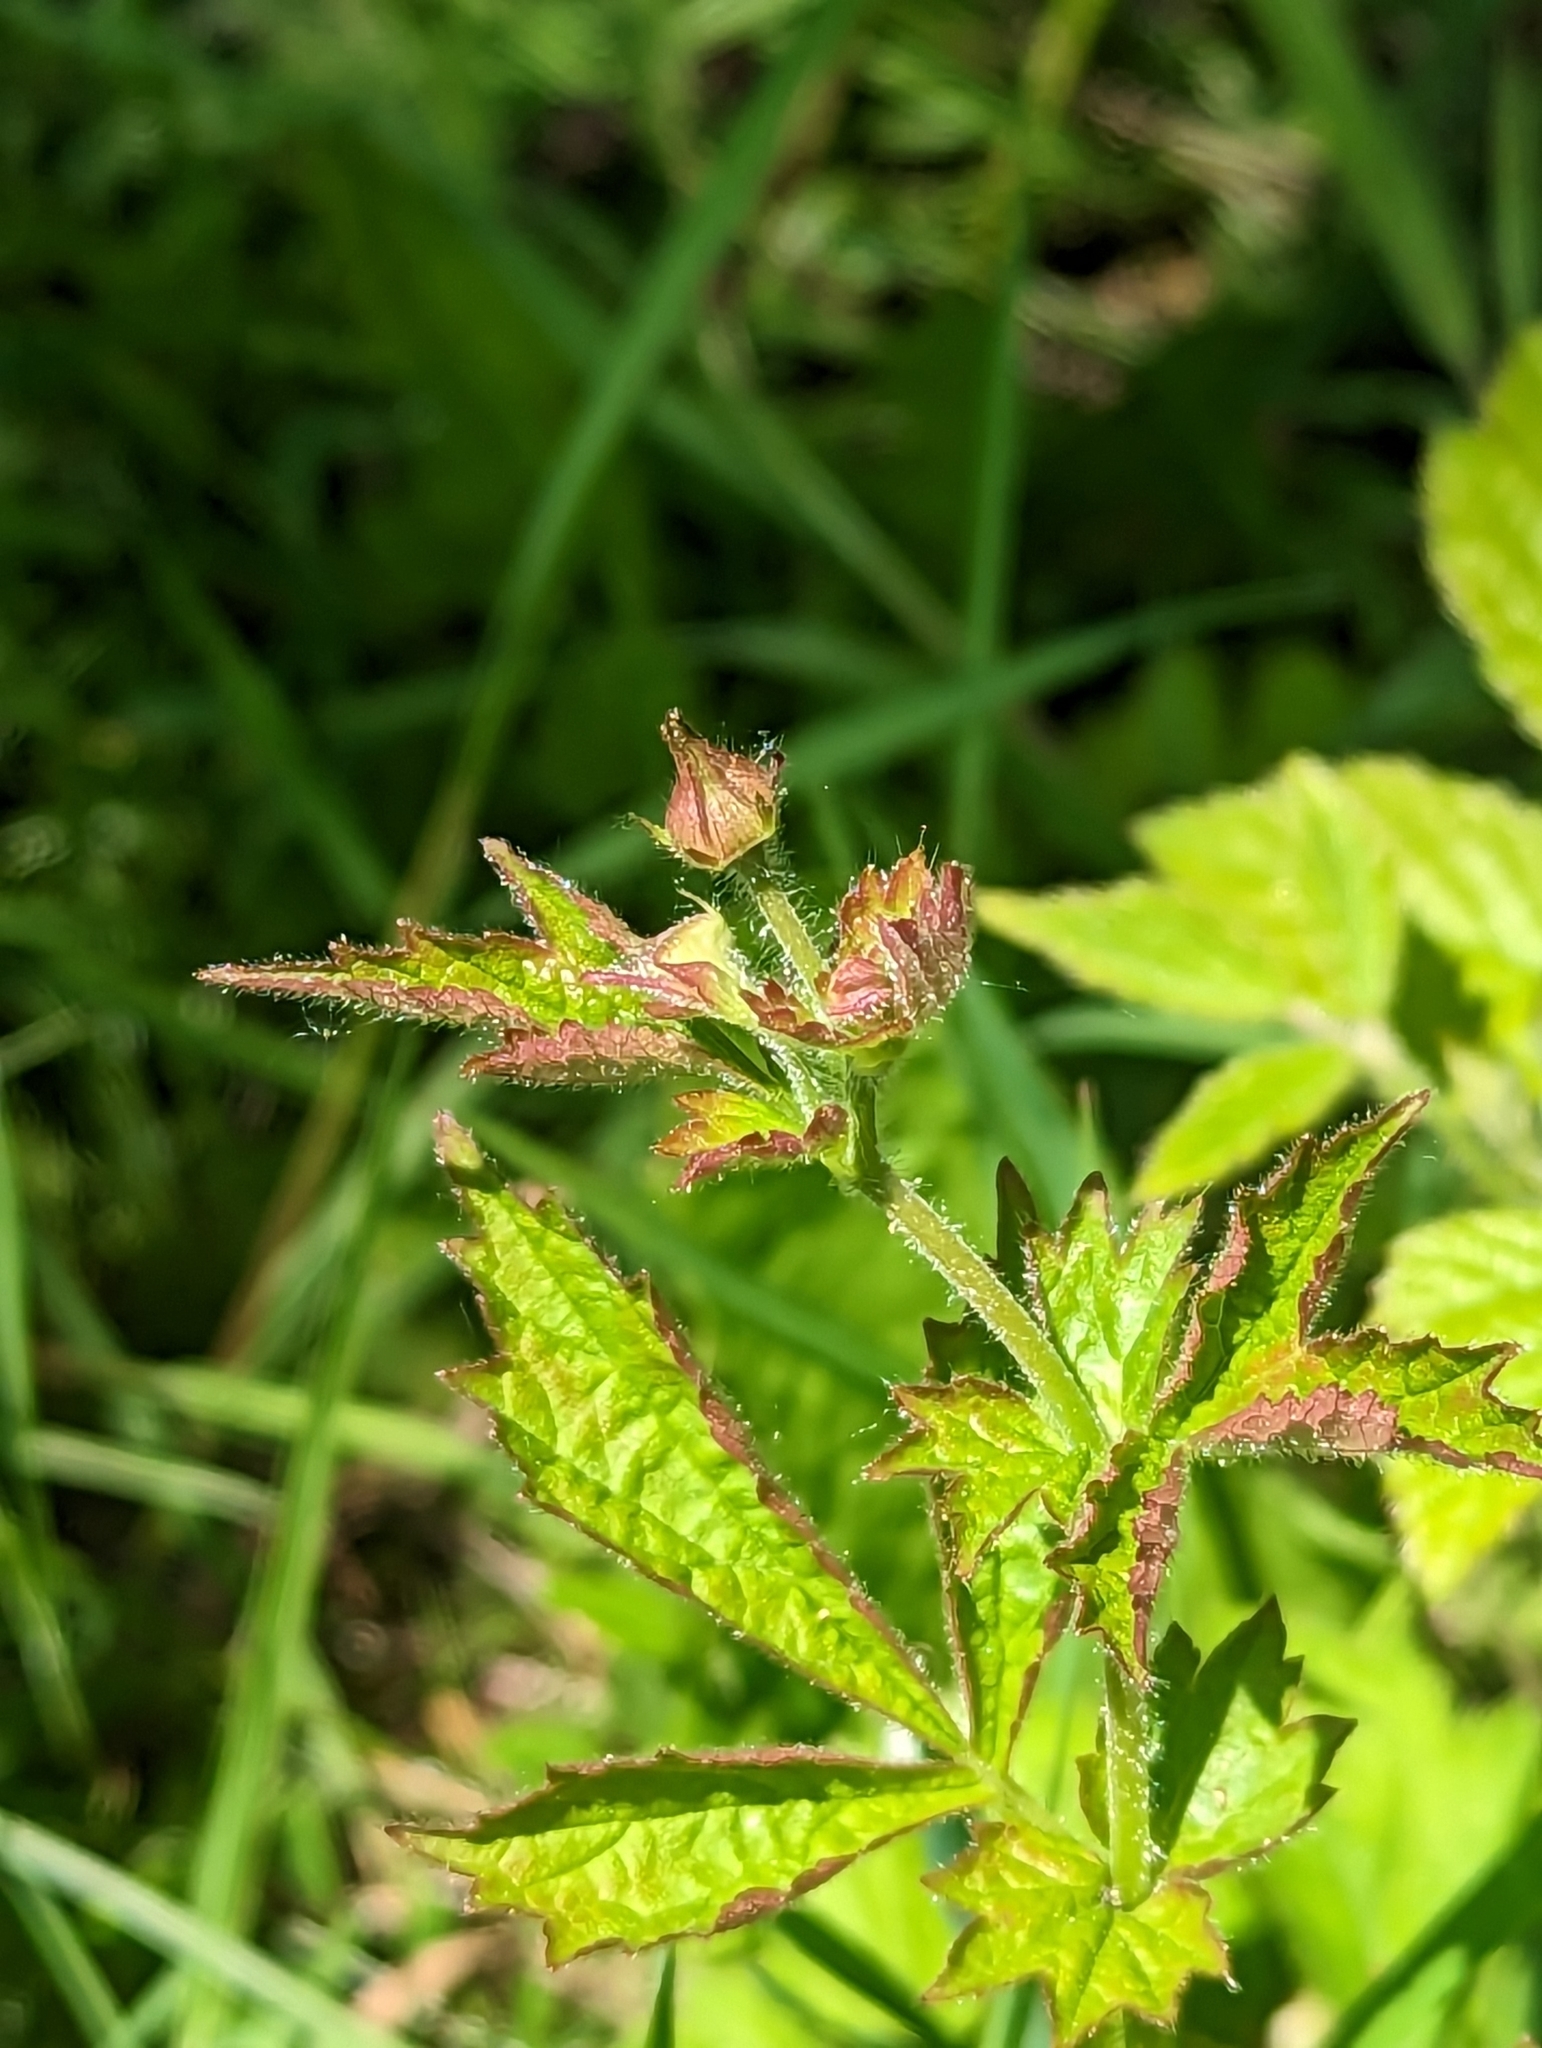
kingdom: Plantae
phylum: Tracheophyta
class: Magnoliopsida
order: Rosales
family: Rosaceae
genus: Geum
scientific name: Geum urbanum
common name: Wood avens
